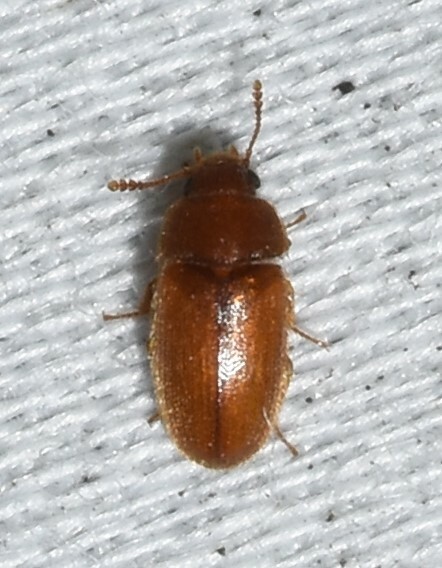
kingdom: Animalia
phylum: Arthropoda
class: Insecta
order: Coleoptera
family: Mycetophagidae
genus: Typhaea
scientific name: Typhaea stercorea
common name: Hairy fungus beetle
